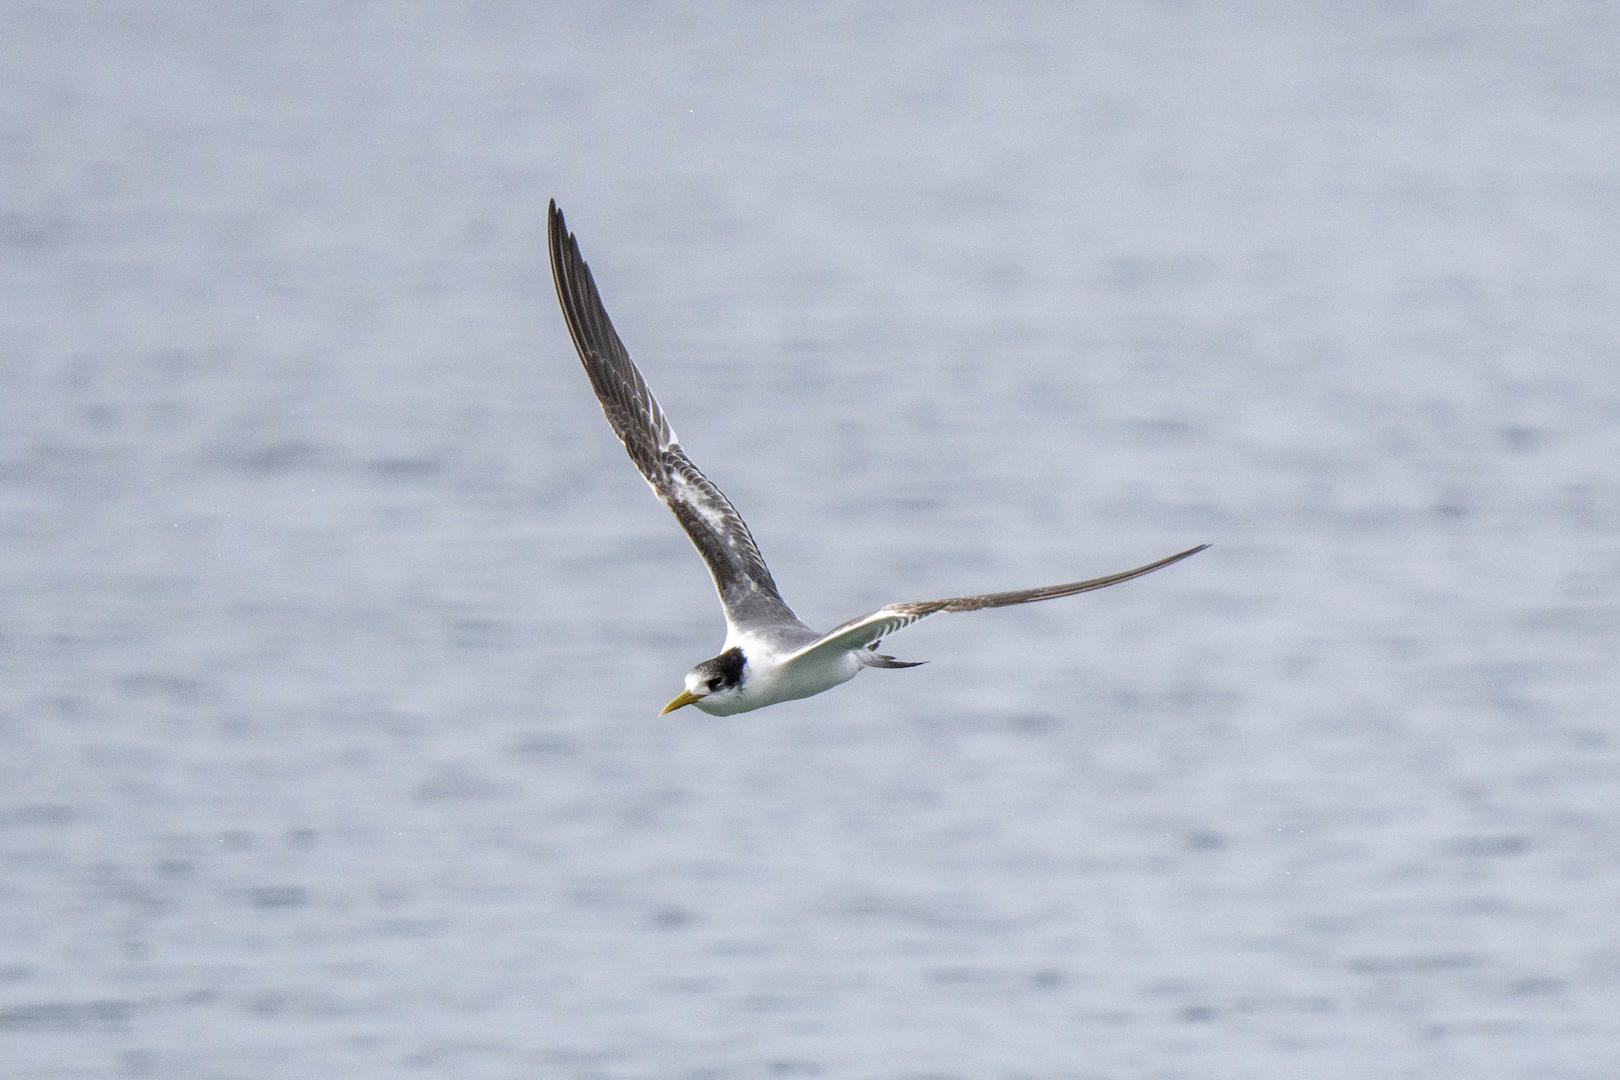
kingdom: Animalia
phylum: Chordata
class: Aves
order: Charadriiformes
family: Laridae
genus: Thalasseus
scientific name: Thalasseus bergii
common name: Greater crested tern
